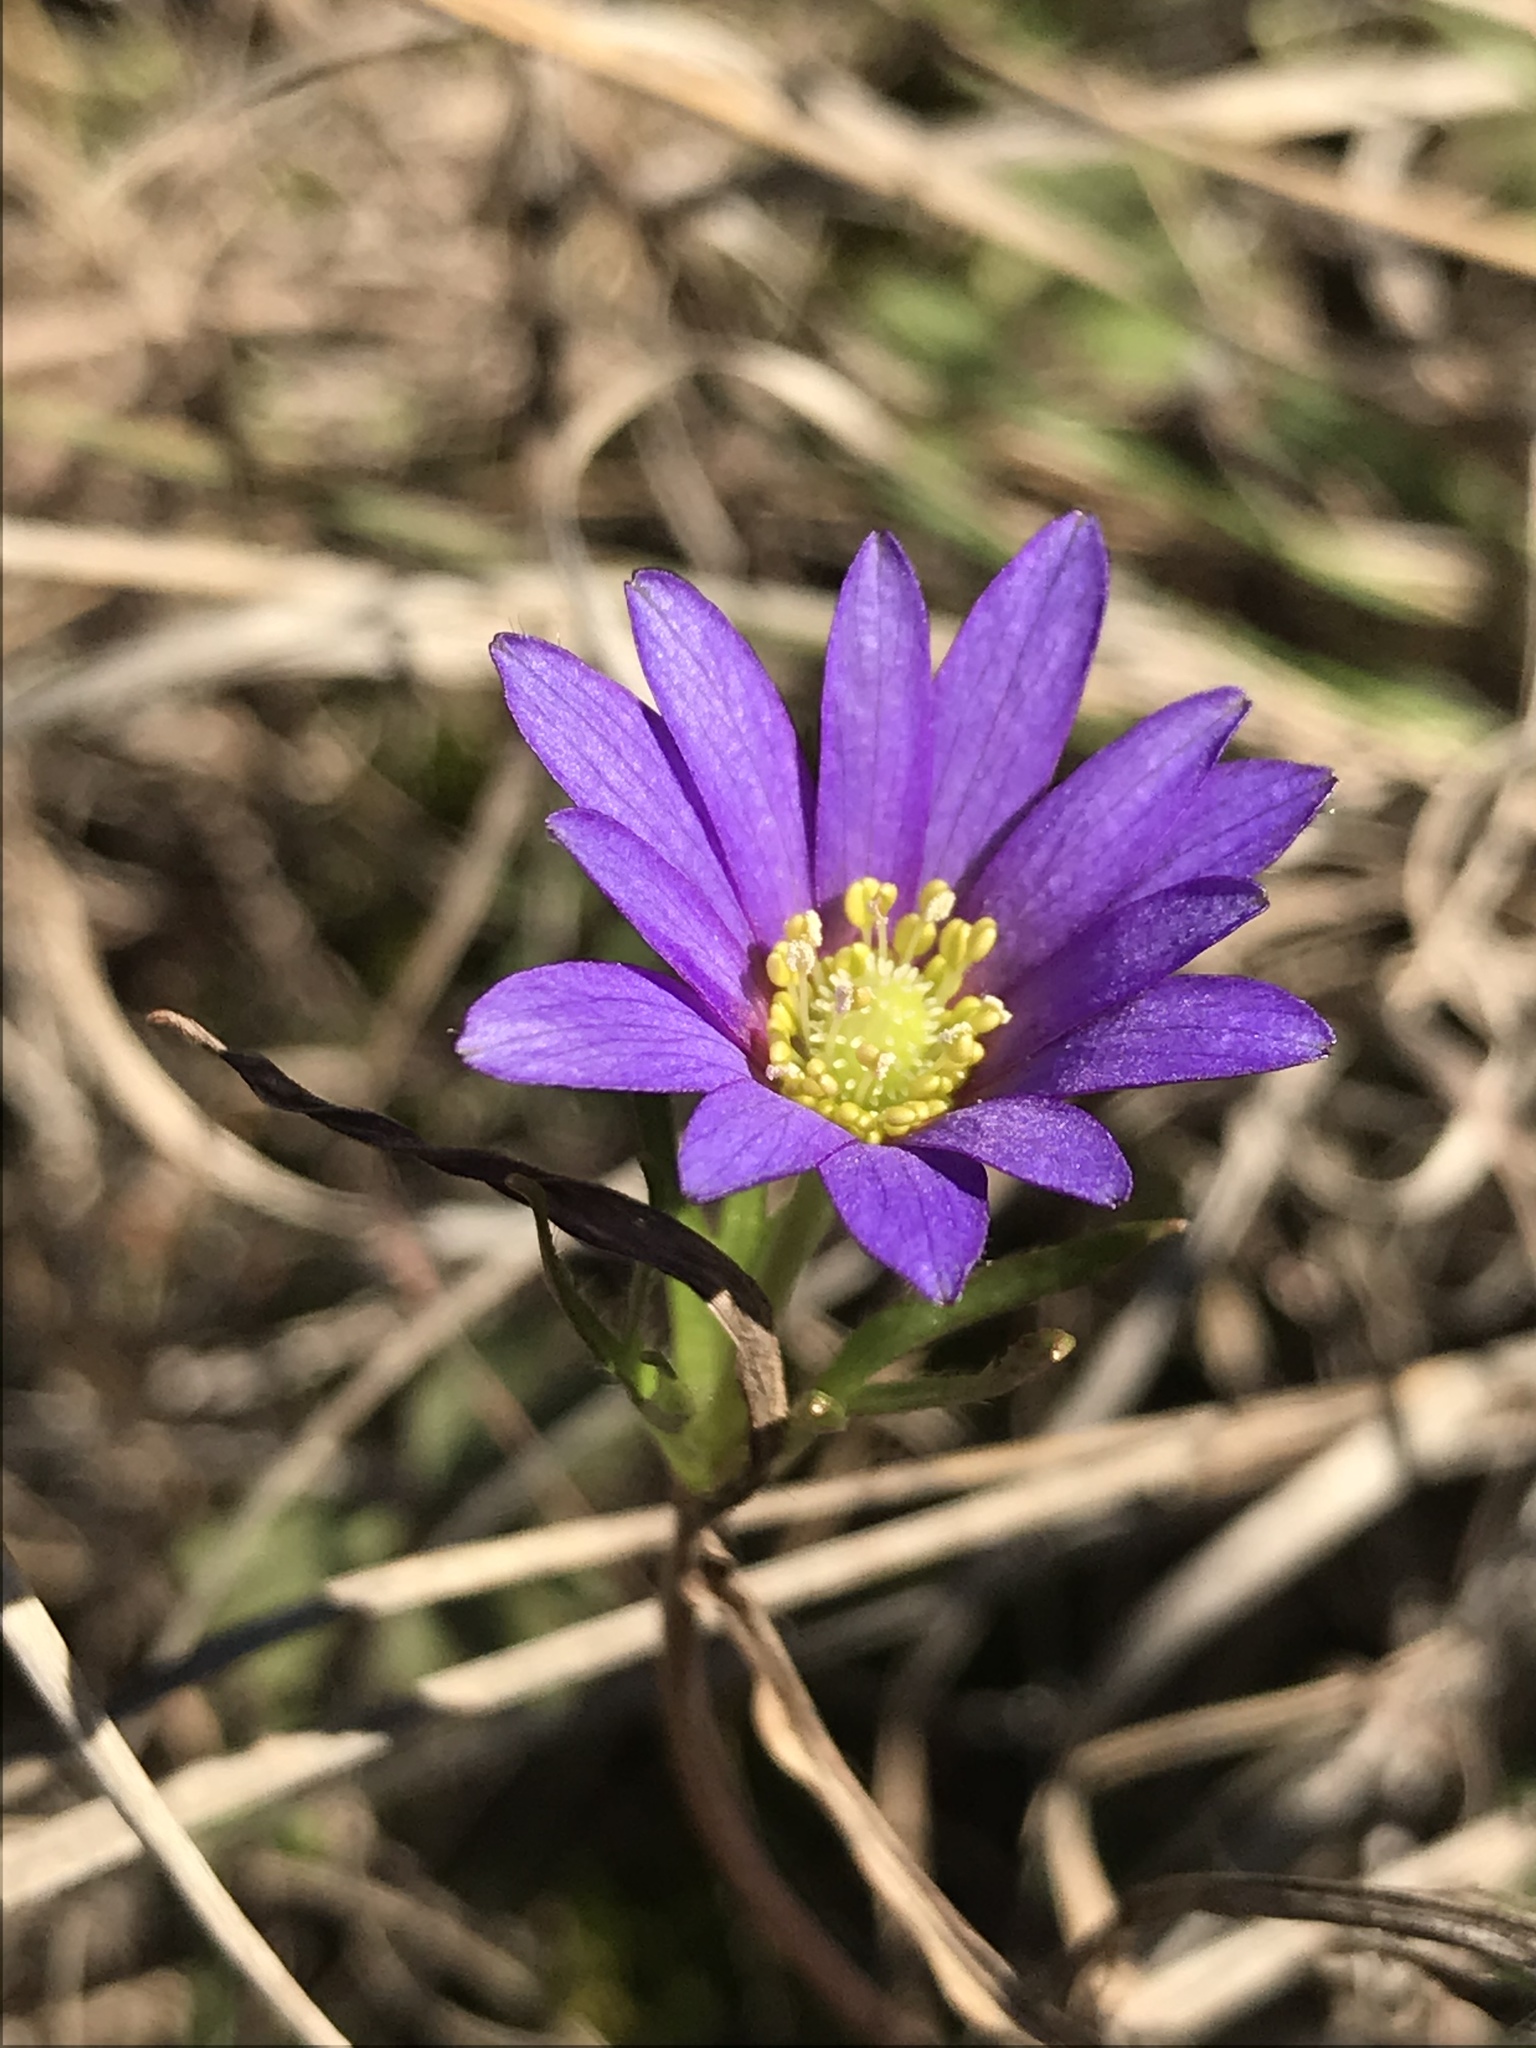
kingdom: Plantae
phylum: Tracheophyta
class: Magnoliopsida
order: Ranunculales
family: Ranunculaceae
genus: Anemone
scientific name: Anemone berlandieri
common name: Ten-petal anemone
